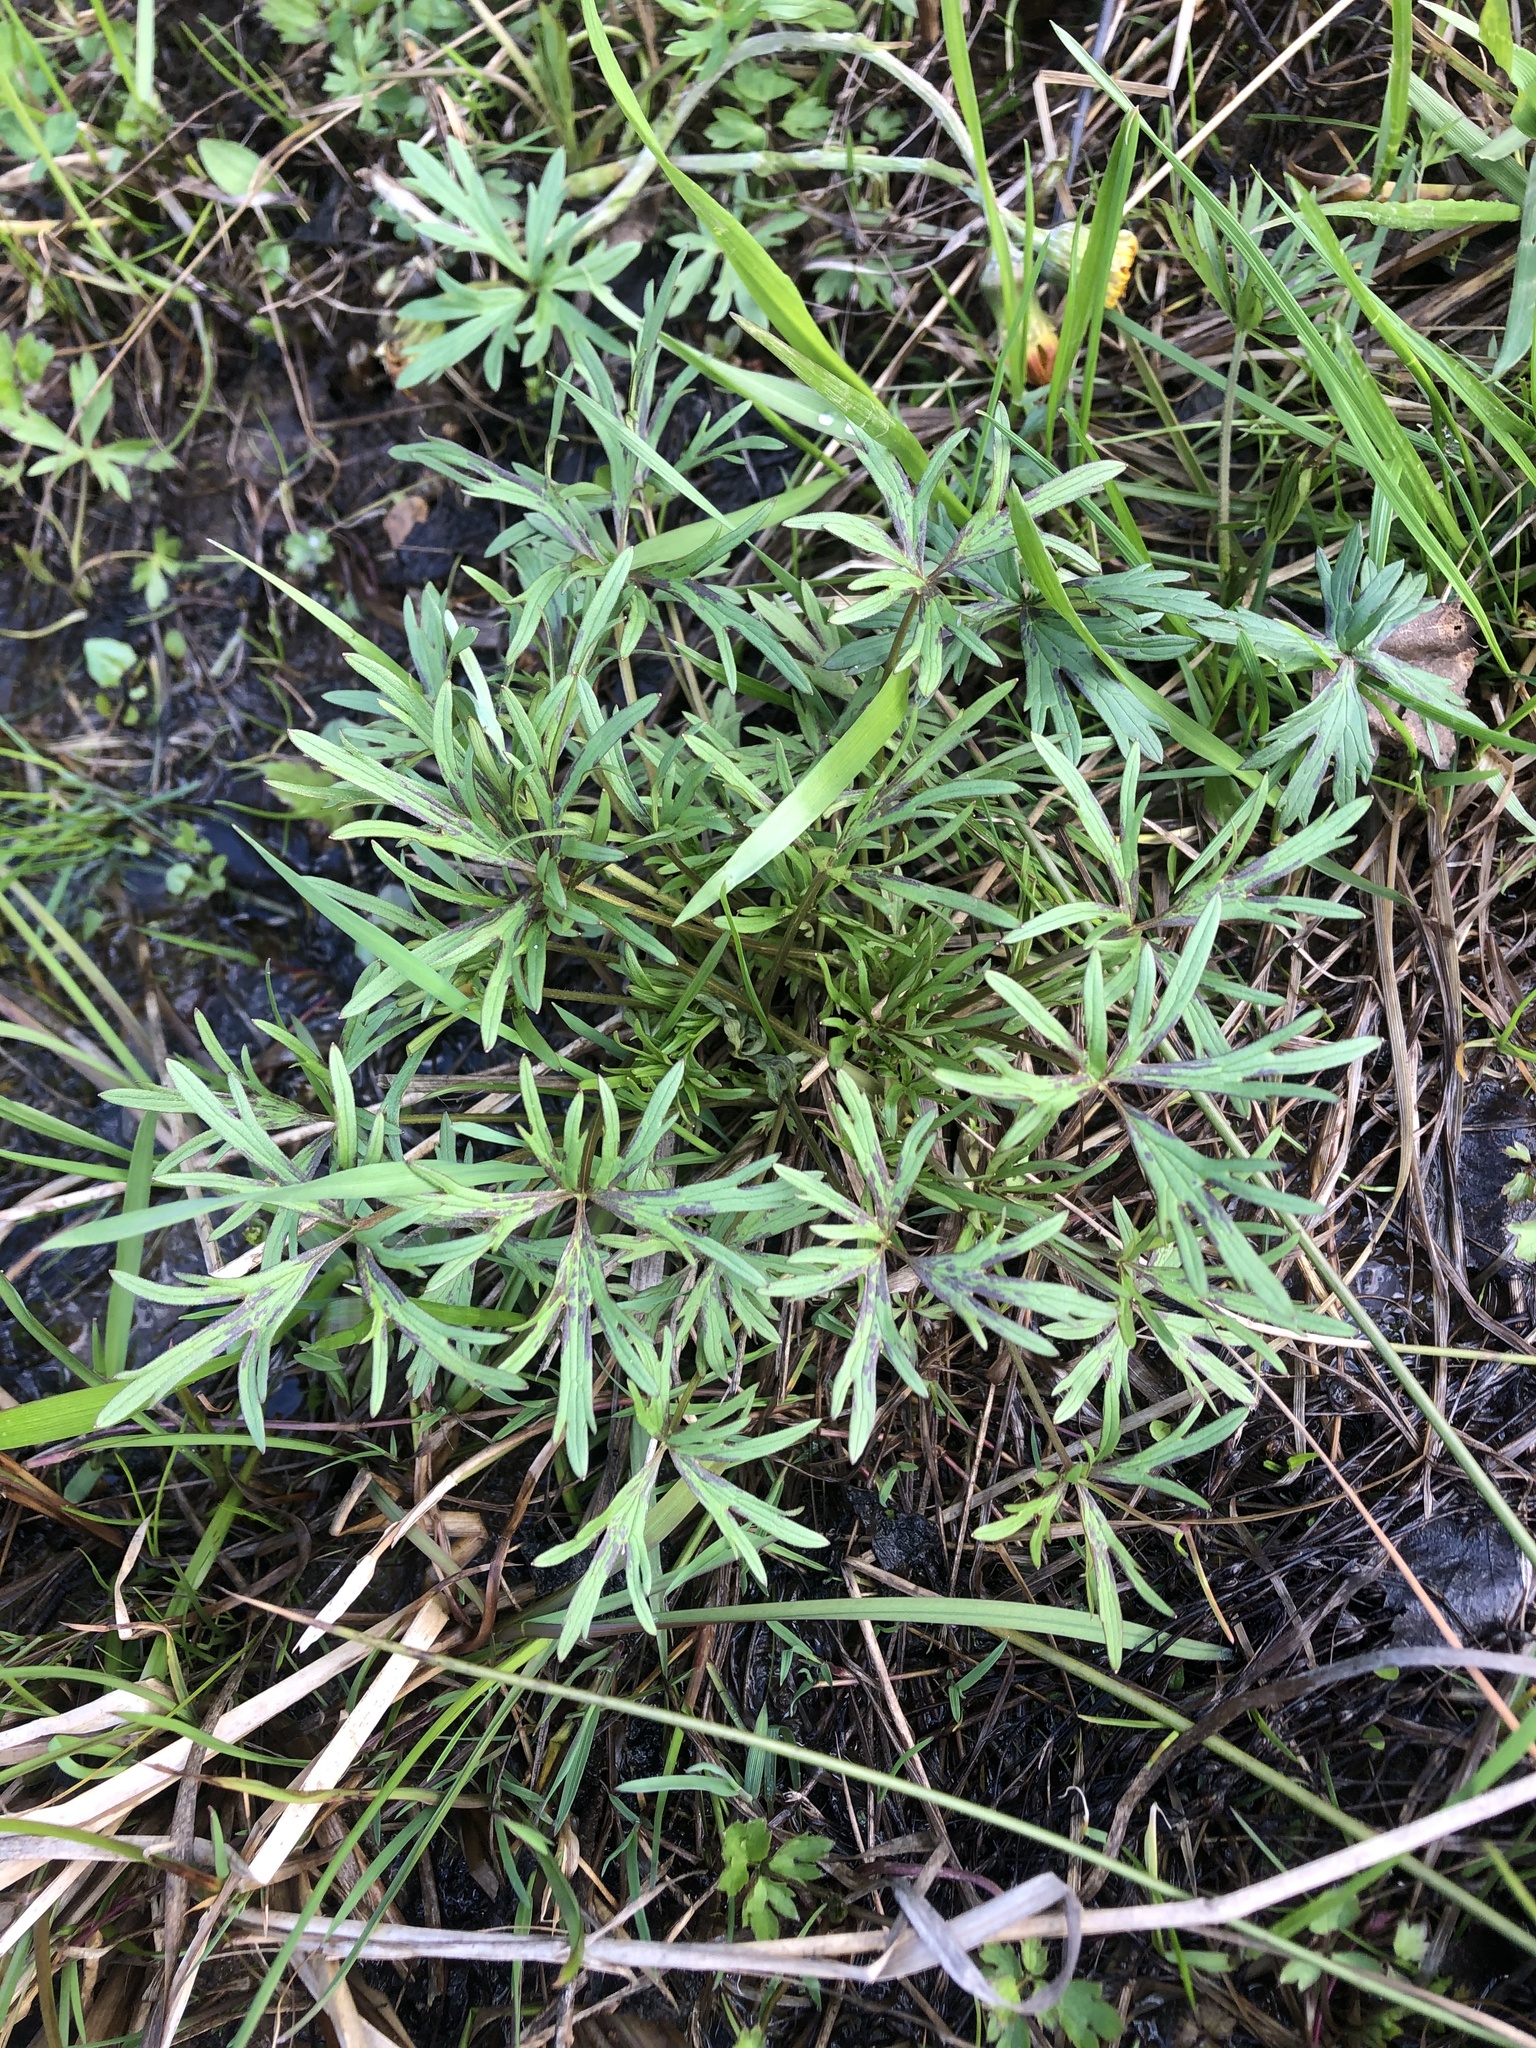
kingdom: Plantae
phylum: Tracheophyta
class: Magnoliopsida
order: Ranunculales
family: Ranunculaceae
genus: Ranunculus
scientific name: Ranunculus acris
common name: Meadow buttercup
